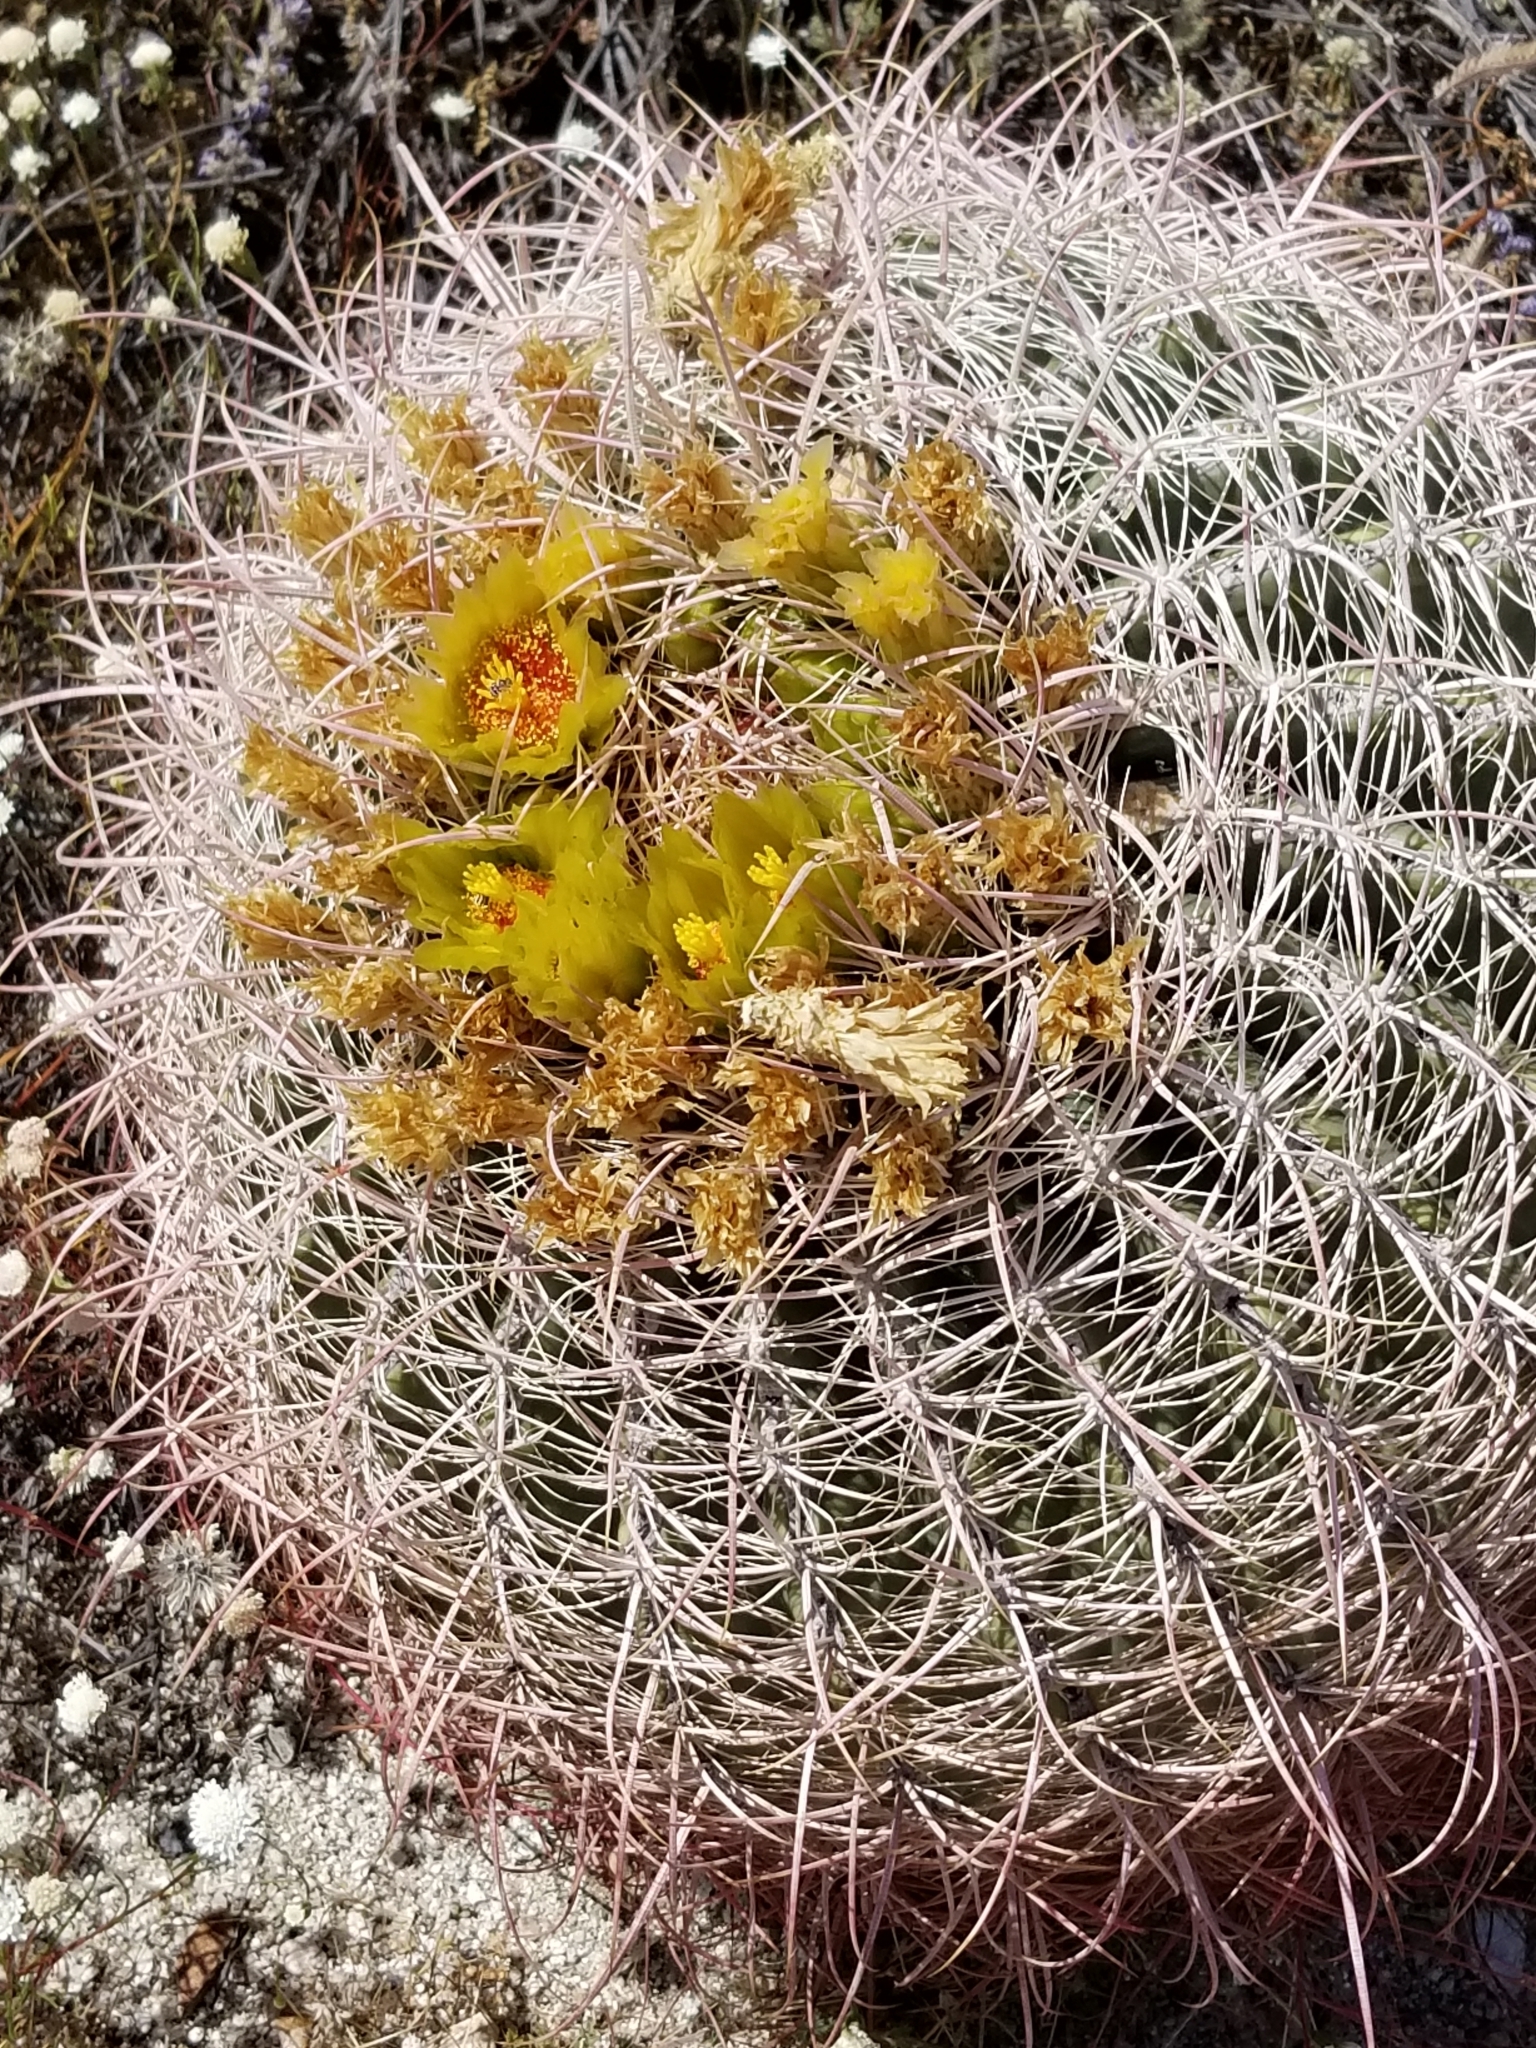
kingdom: Plantae
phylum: Tracheophyta
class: Magnoliopsida
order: Caryophyllales
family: Cactaceae
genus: Ferocactus
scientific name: Ferocactus cylindraceus
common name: California barrel cactus
